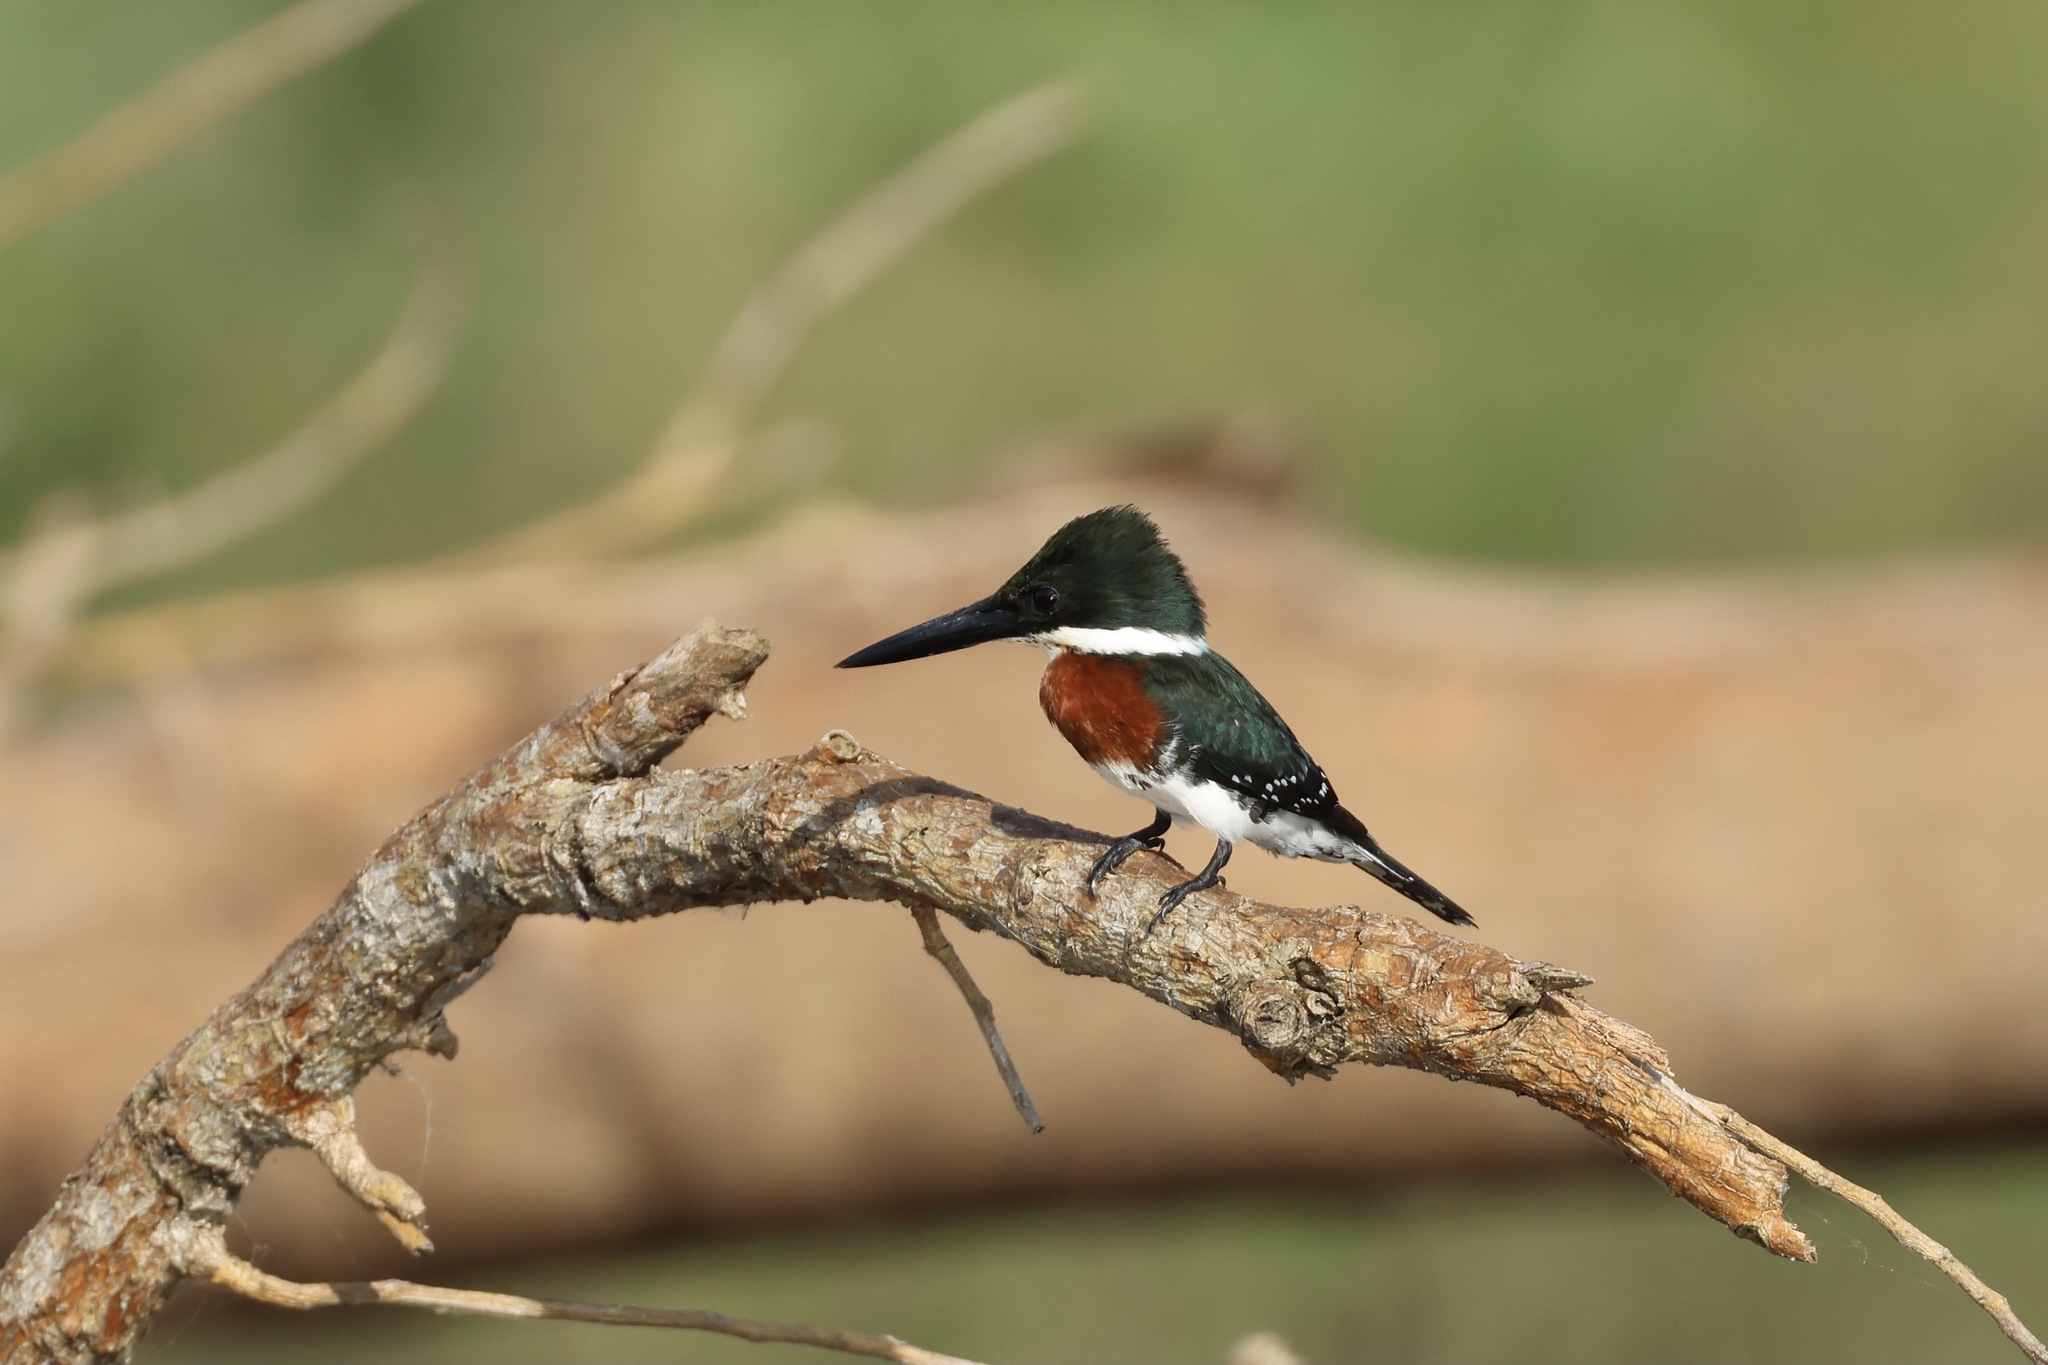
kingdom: Animalia
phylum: Chordata
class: Aves
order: Coraciiformes
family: Alcedinidae
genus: Chloroceryle
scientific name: Chloroceryle americana
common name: Green kingfisher
